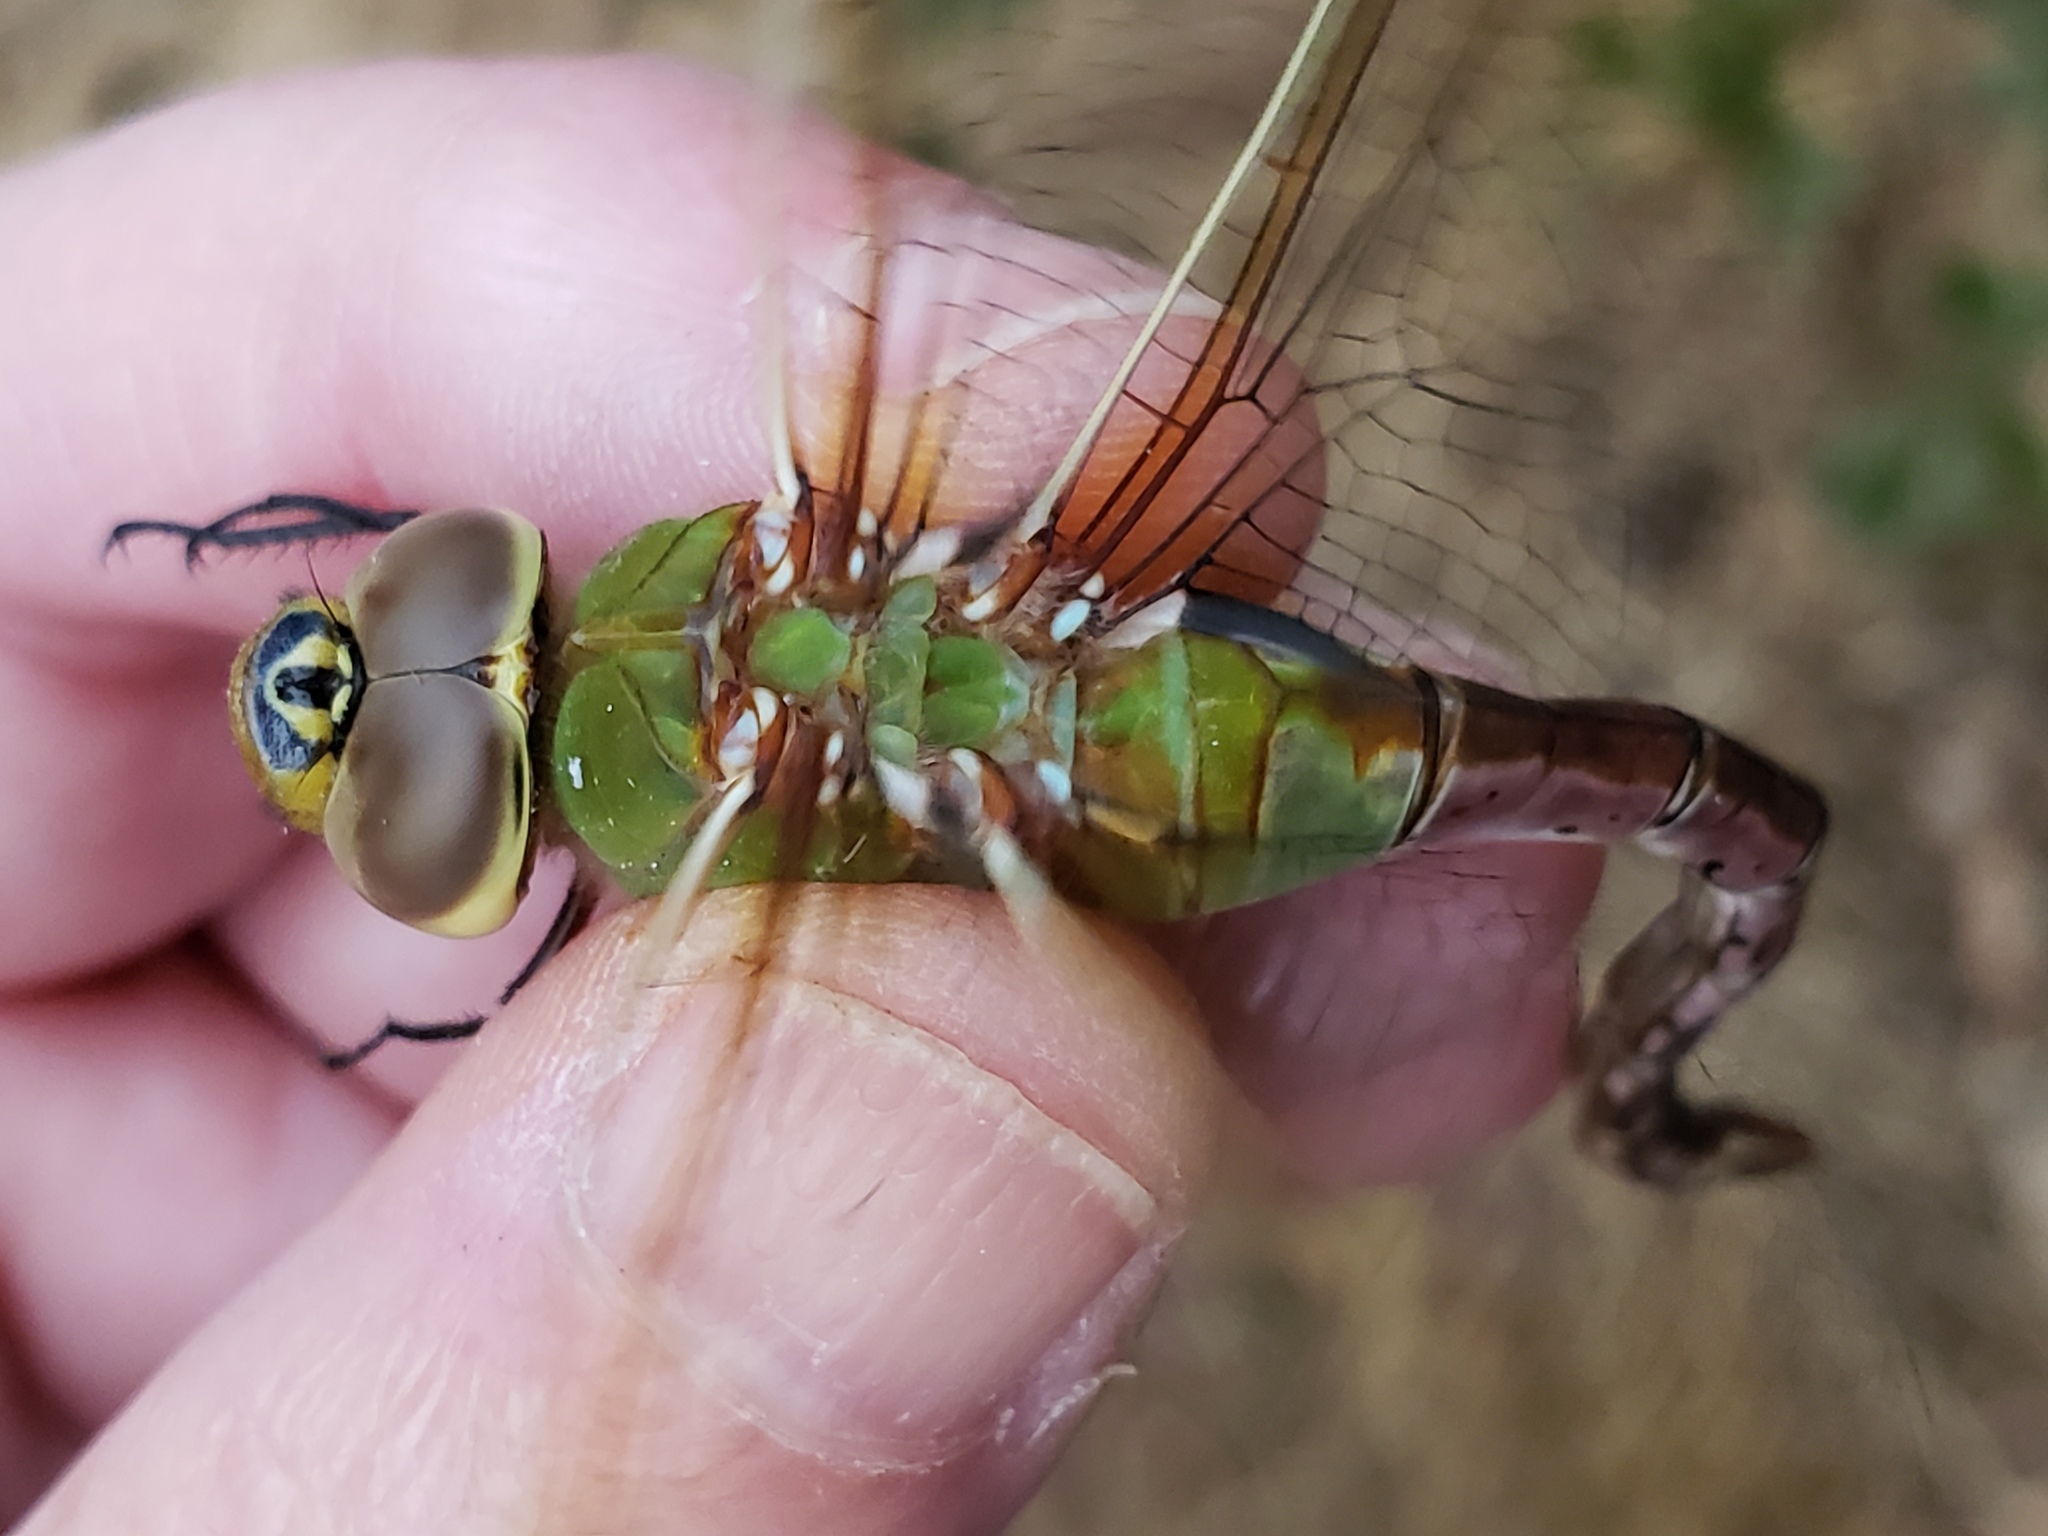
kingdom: Animalia
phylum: Arthropoda
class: Insecta
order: Odonata
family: Aeshnidae
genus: Anax
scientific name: Anax junius
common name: Common green darner
